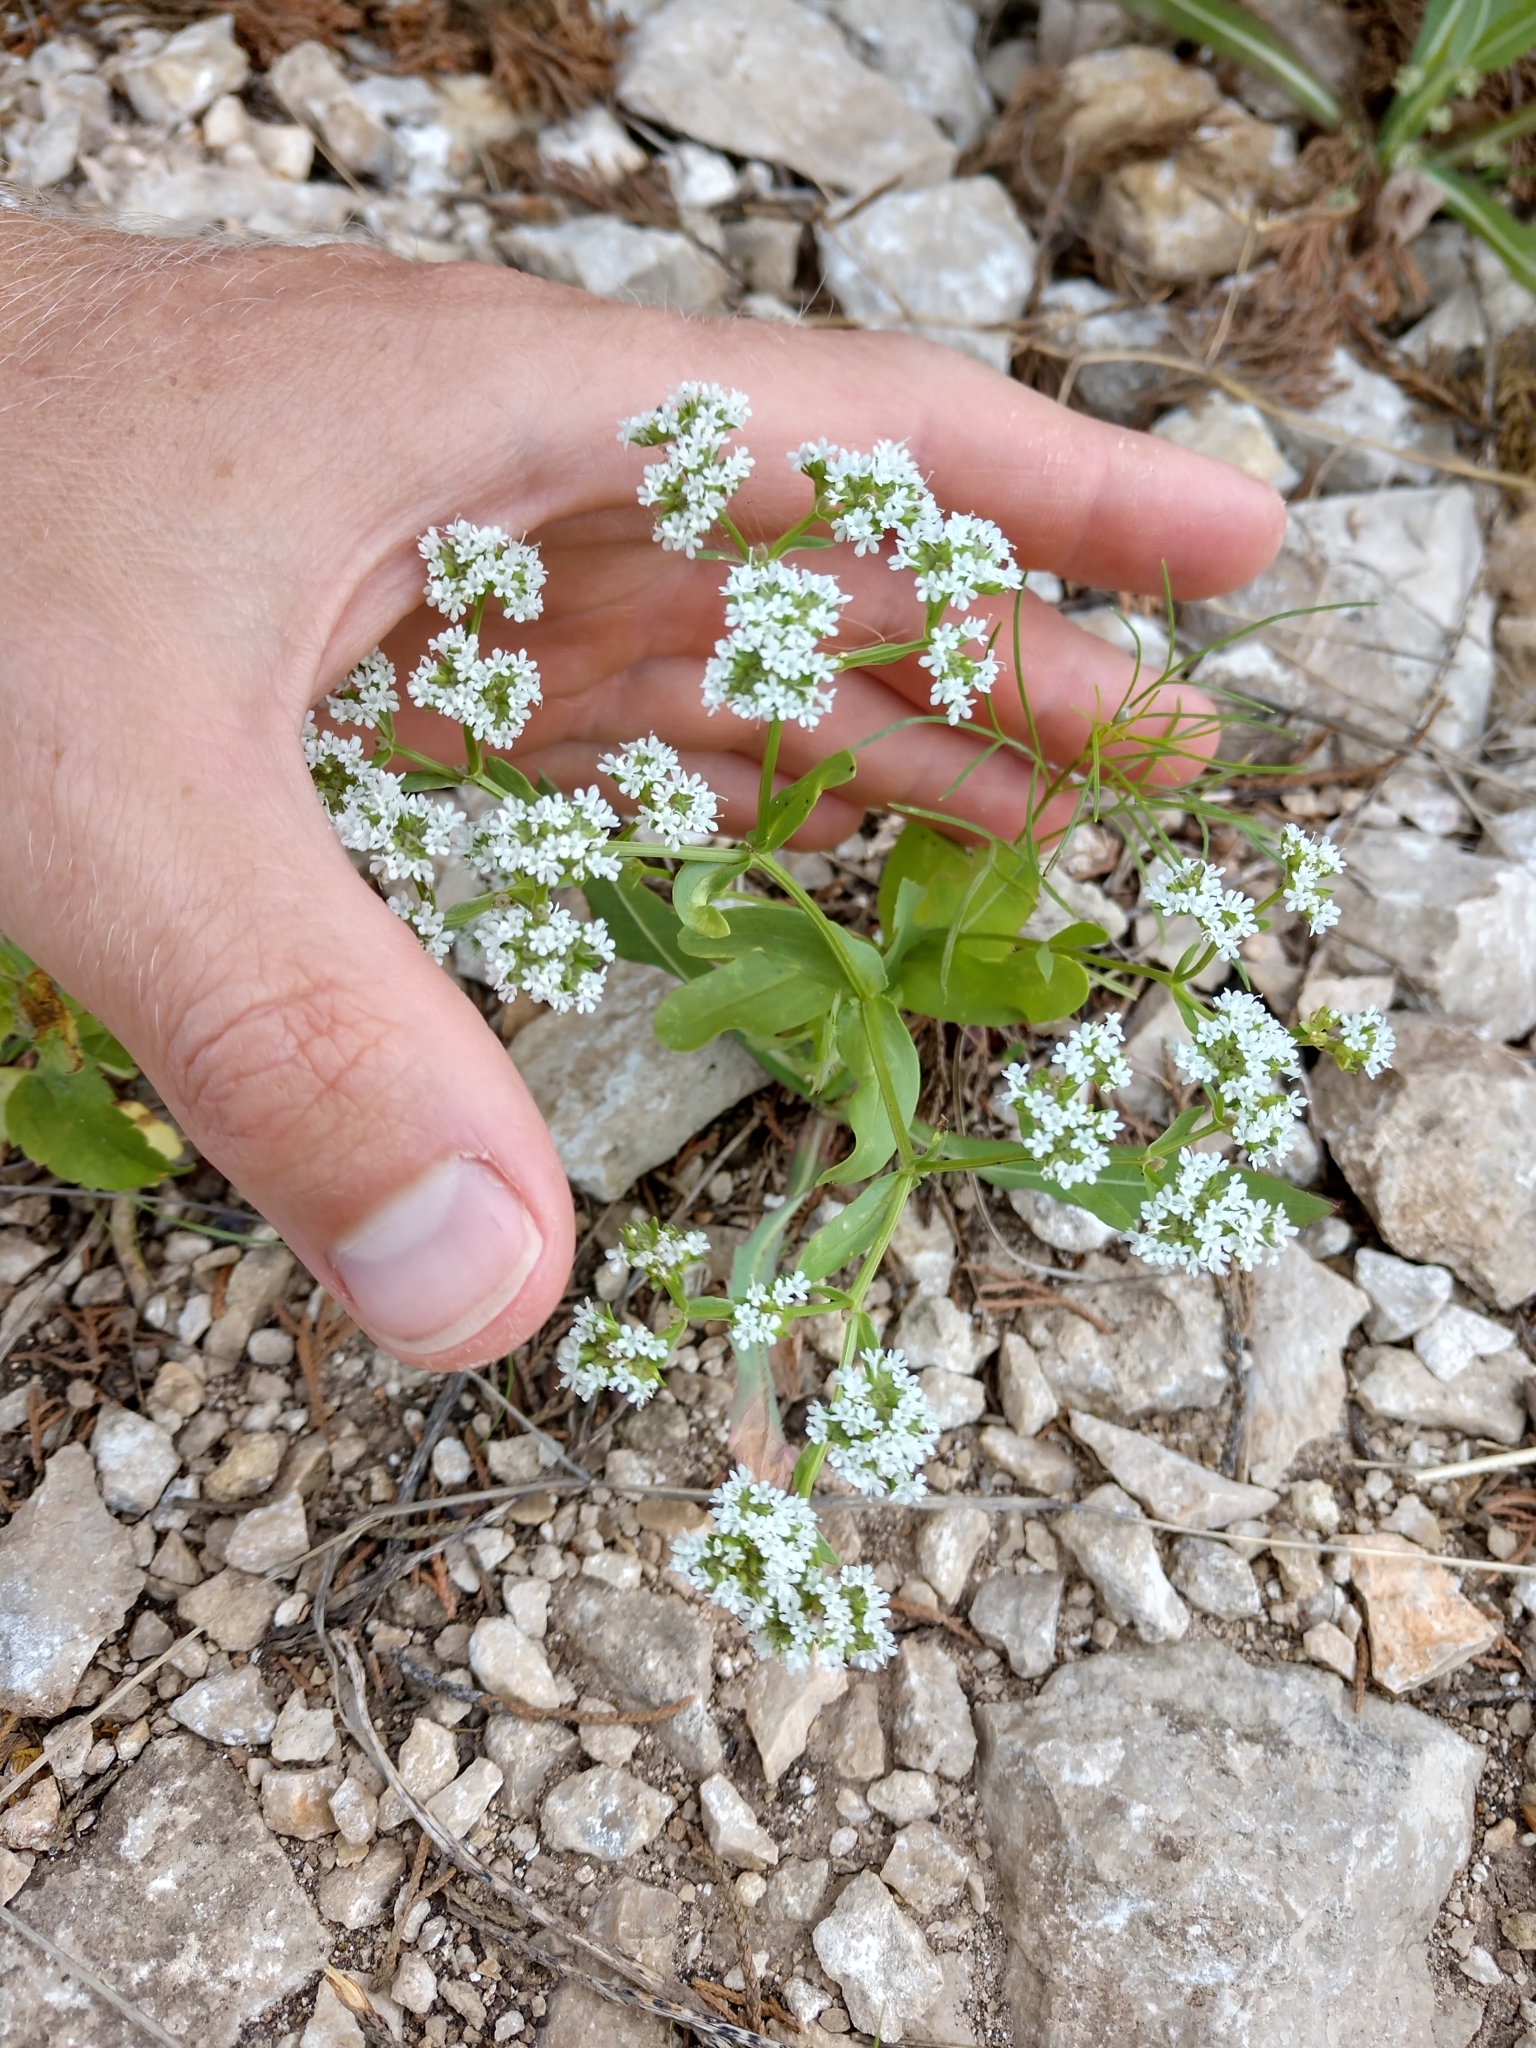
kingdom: Plantae
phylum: Tracheophyta
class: Magnoliopsida
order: Dipsacales
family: Caprifoliaceae
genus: Valerianella
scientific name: Valerianella amarella
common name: Hariy cornsalad
